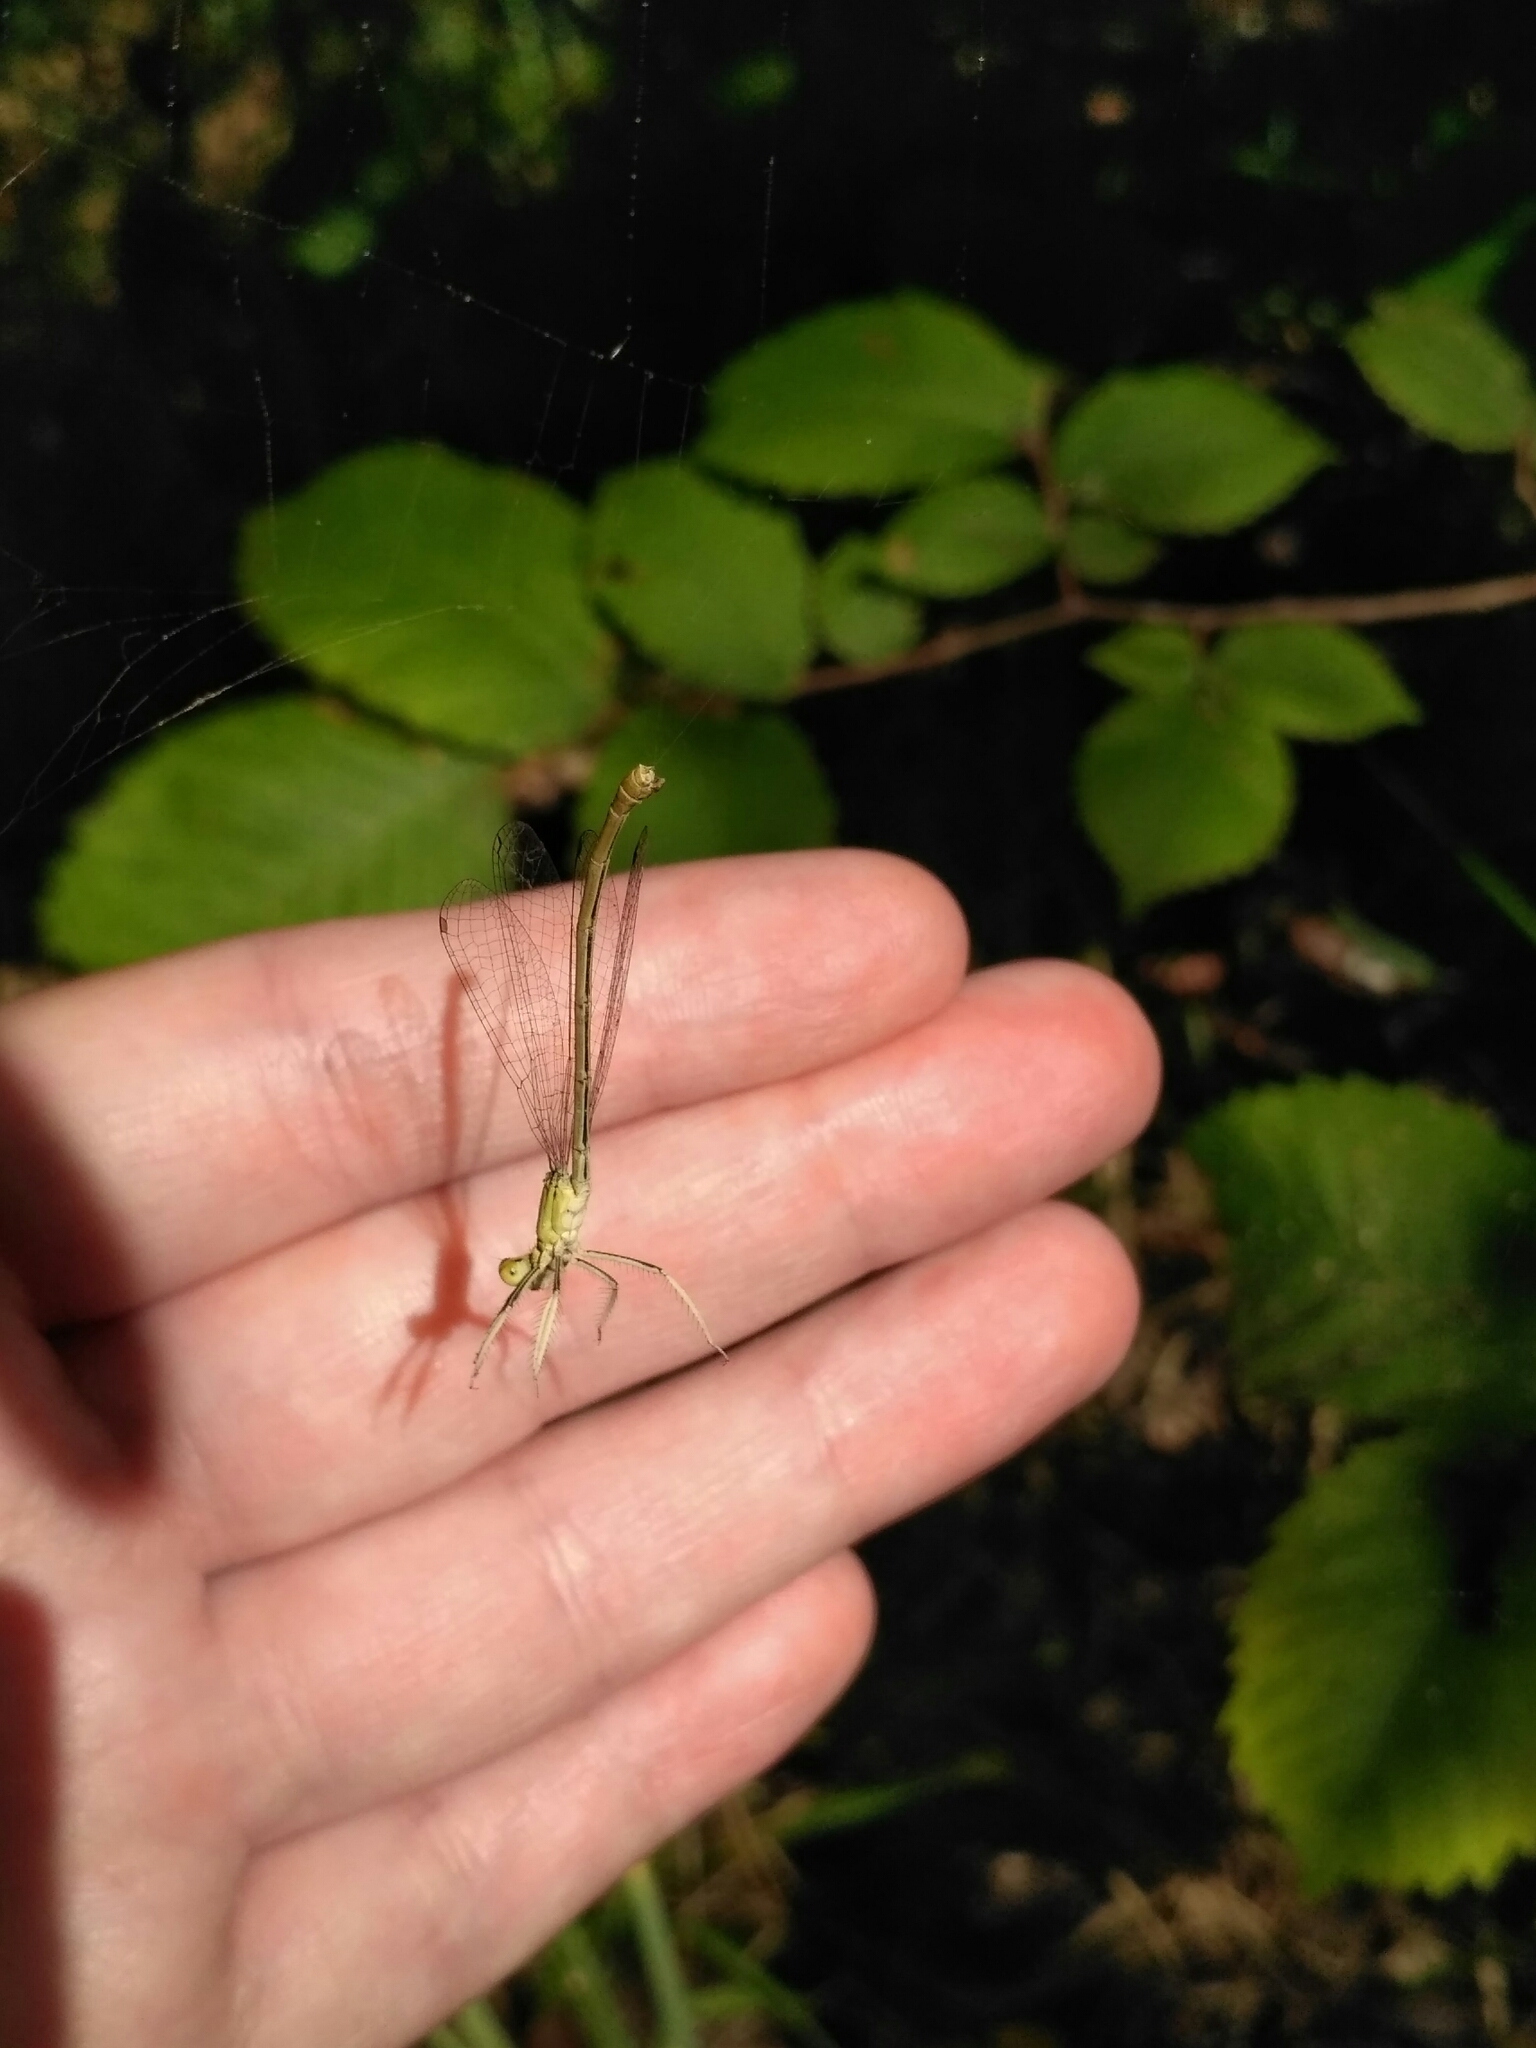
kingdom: Animalia
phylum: Arthropoda
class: Insecta
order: Odonata
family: Platycnemididae
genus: Platycnemis
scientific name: Platycnemis pennipes
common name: White-legged damselfly
